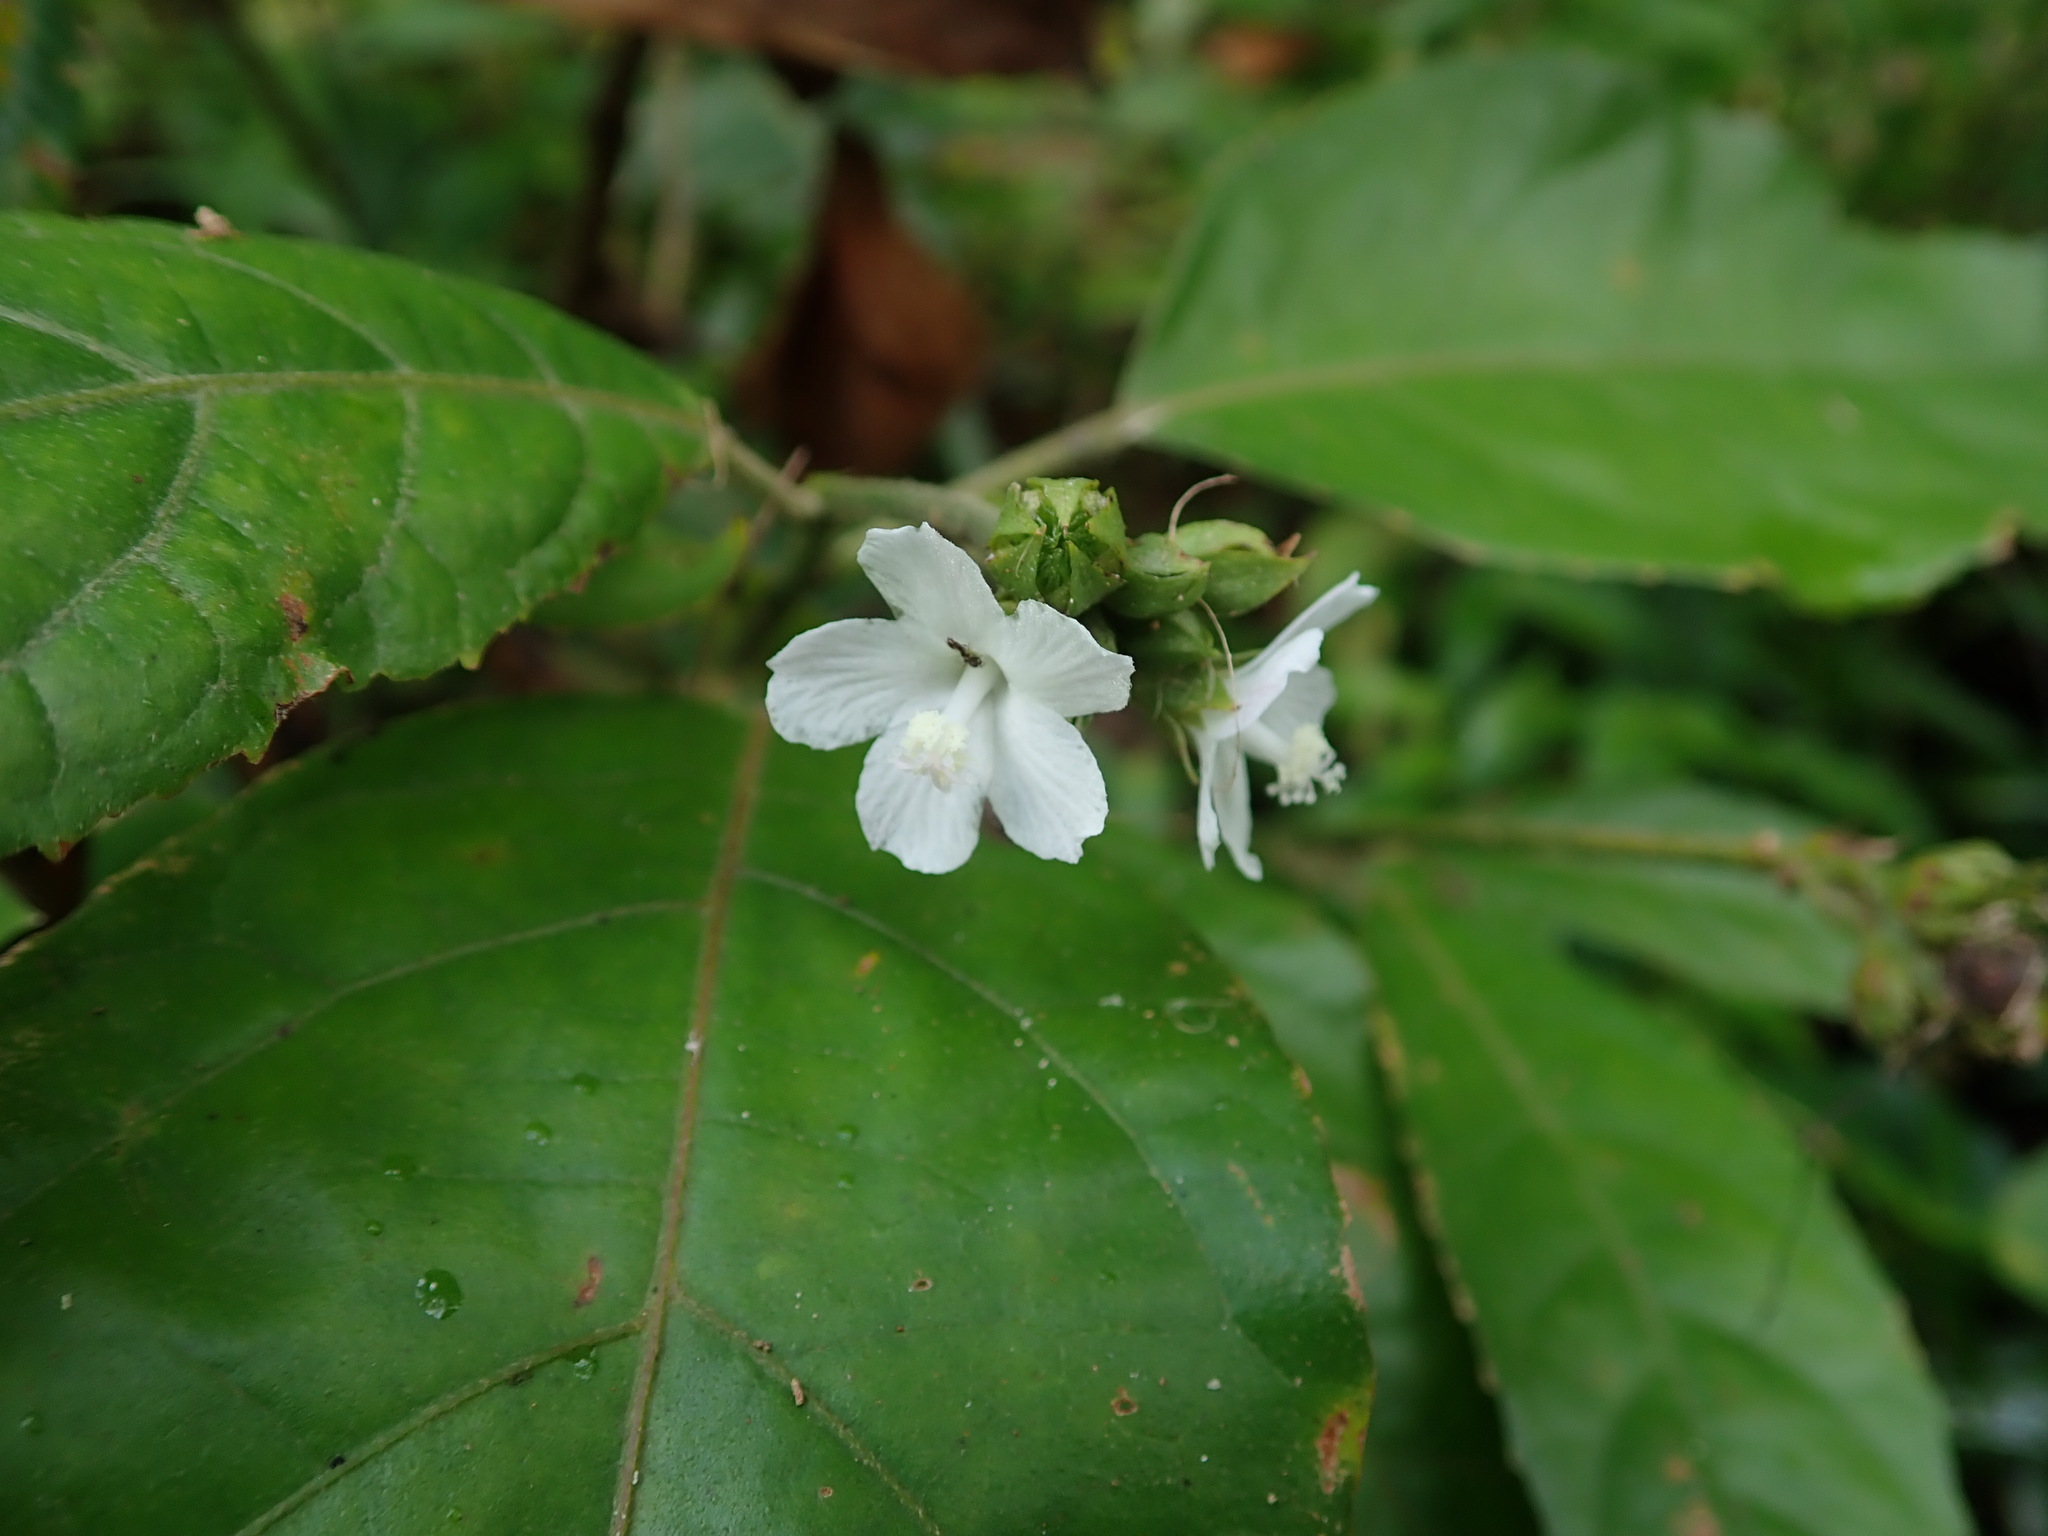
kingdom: Plantae
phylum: Tracheophyta
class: Magnoliopsida
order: Malvales
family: Malvaceae
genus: Pavonia
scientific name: Pavonia fruticosa
